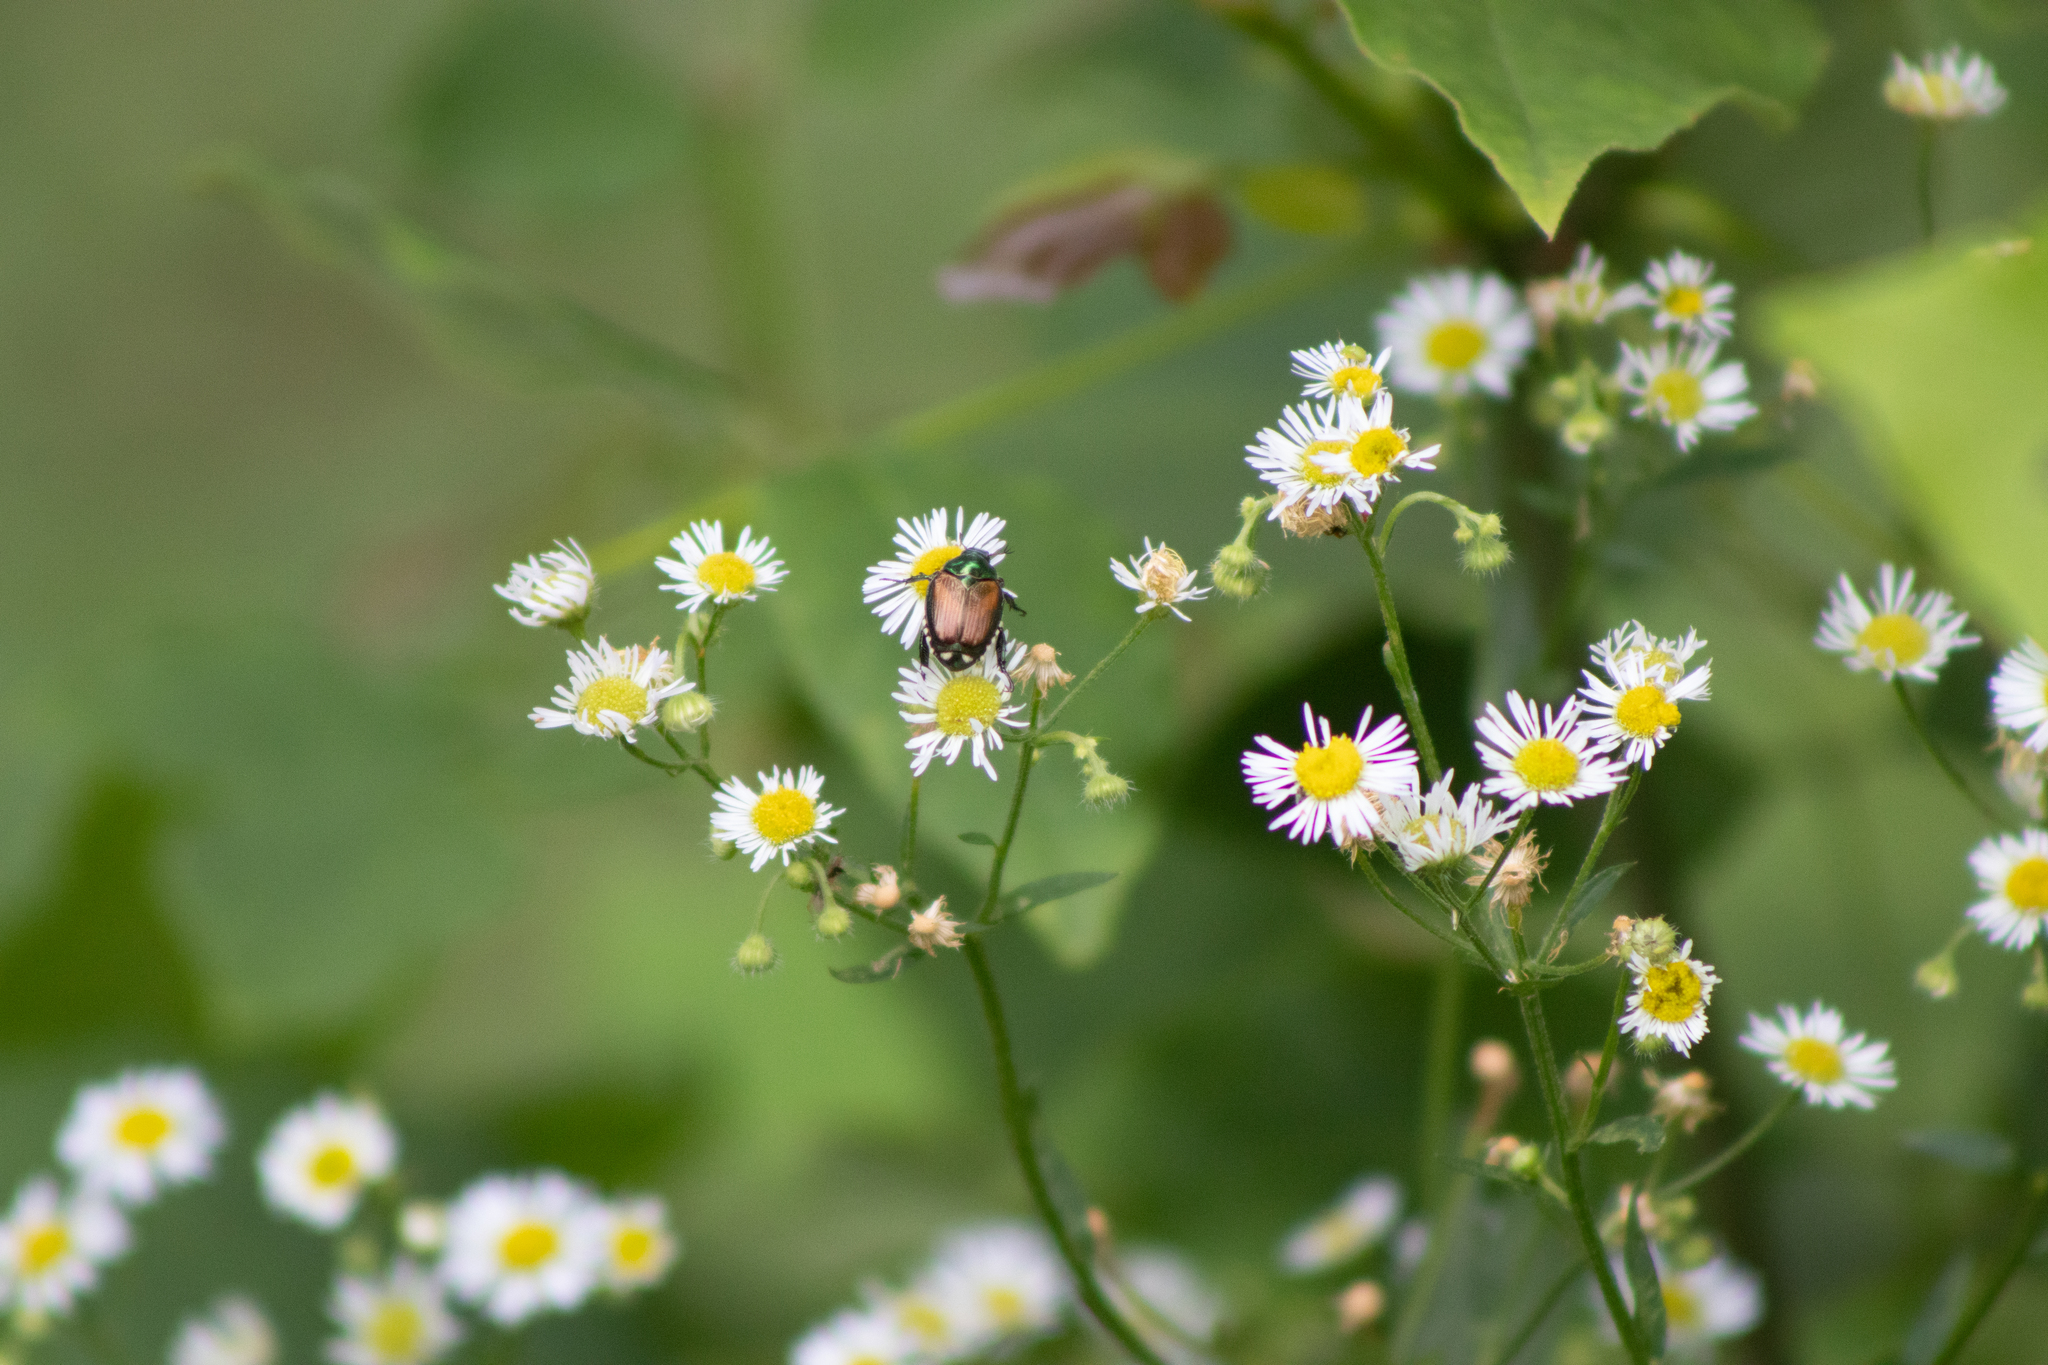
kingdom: Animalia
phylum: Arthropoda
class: Insecta
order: Coleoptera
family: Scarabaeidae
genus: Popillia
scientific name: Popillia japonica
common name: Japanese beetle
